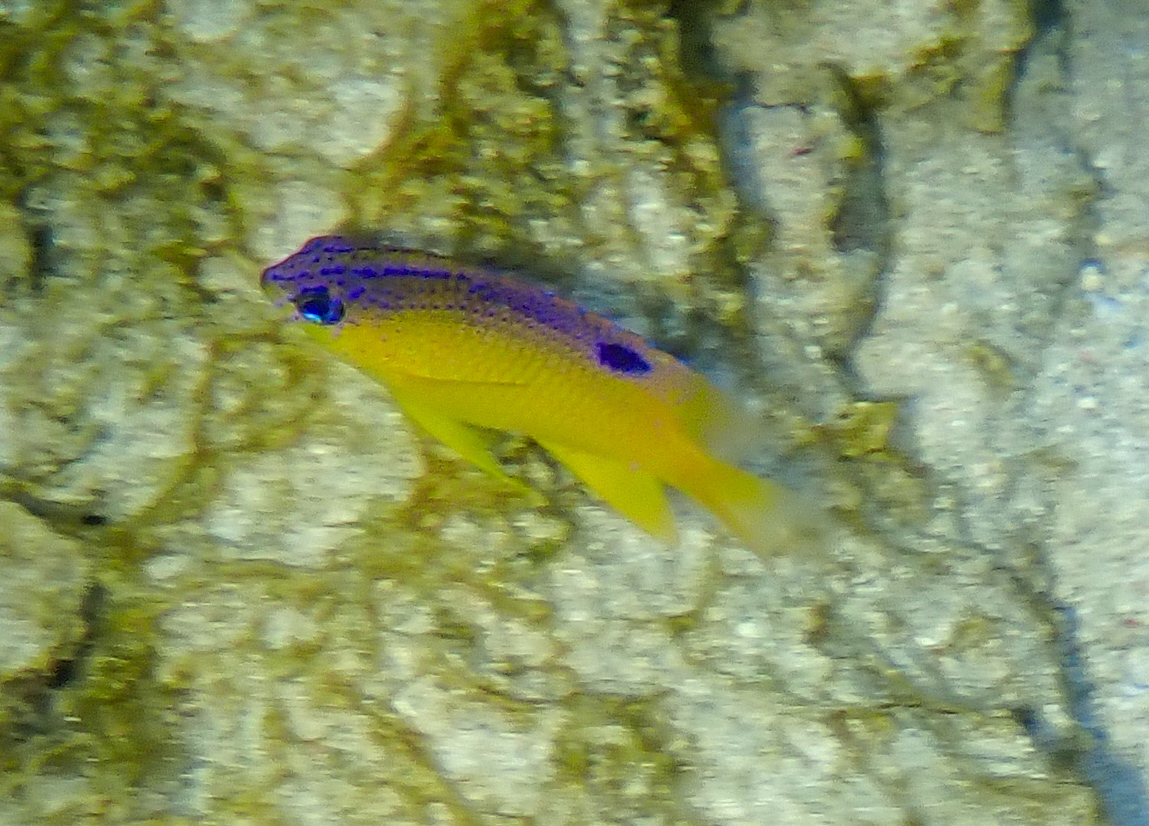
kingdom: Animalia
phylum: Chordata
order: Perciformes
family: Pomacentridae
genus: Stegastes
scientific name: Stegastes diencaeus
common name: Longfin damselfish
